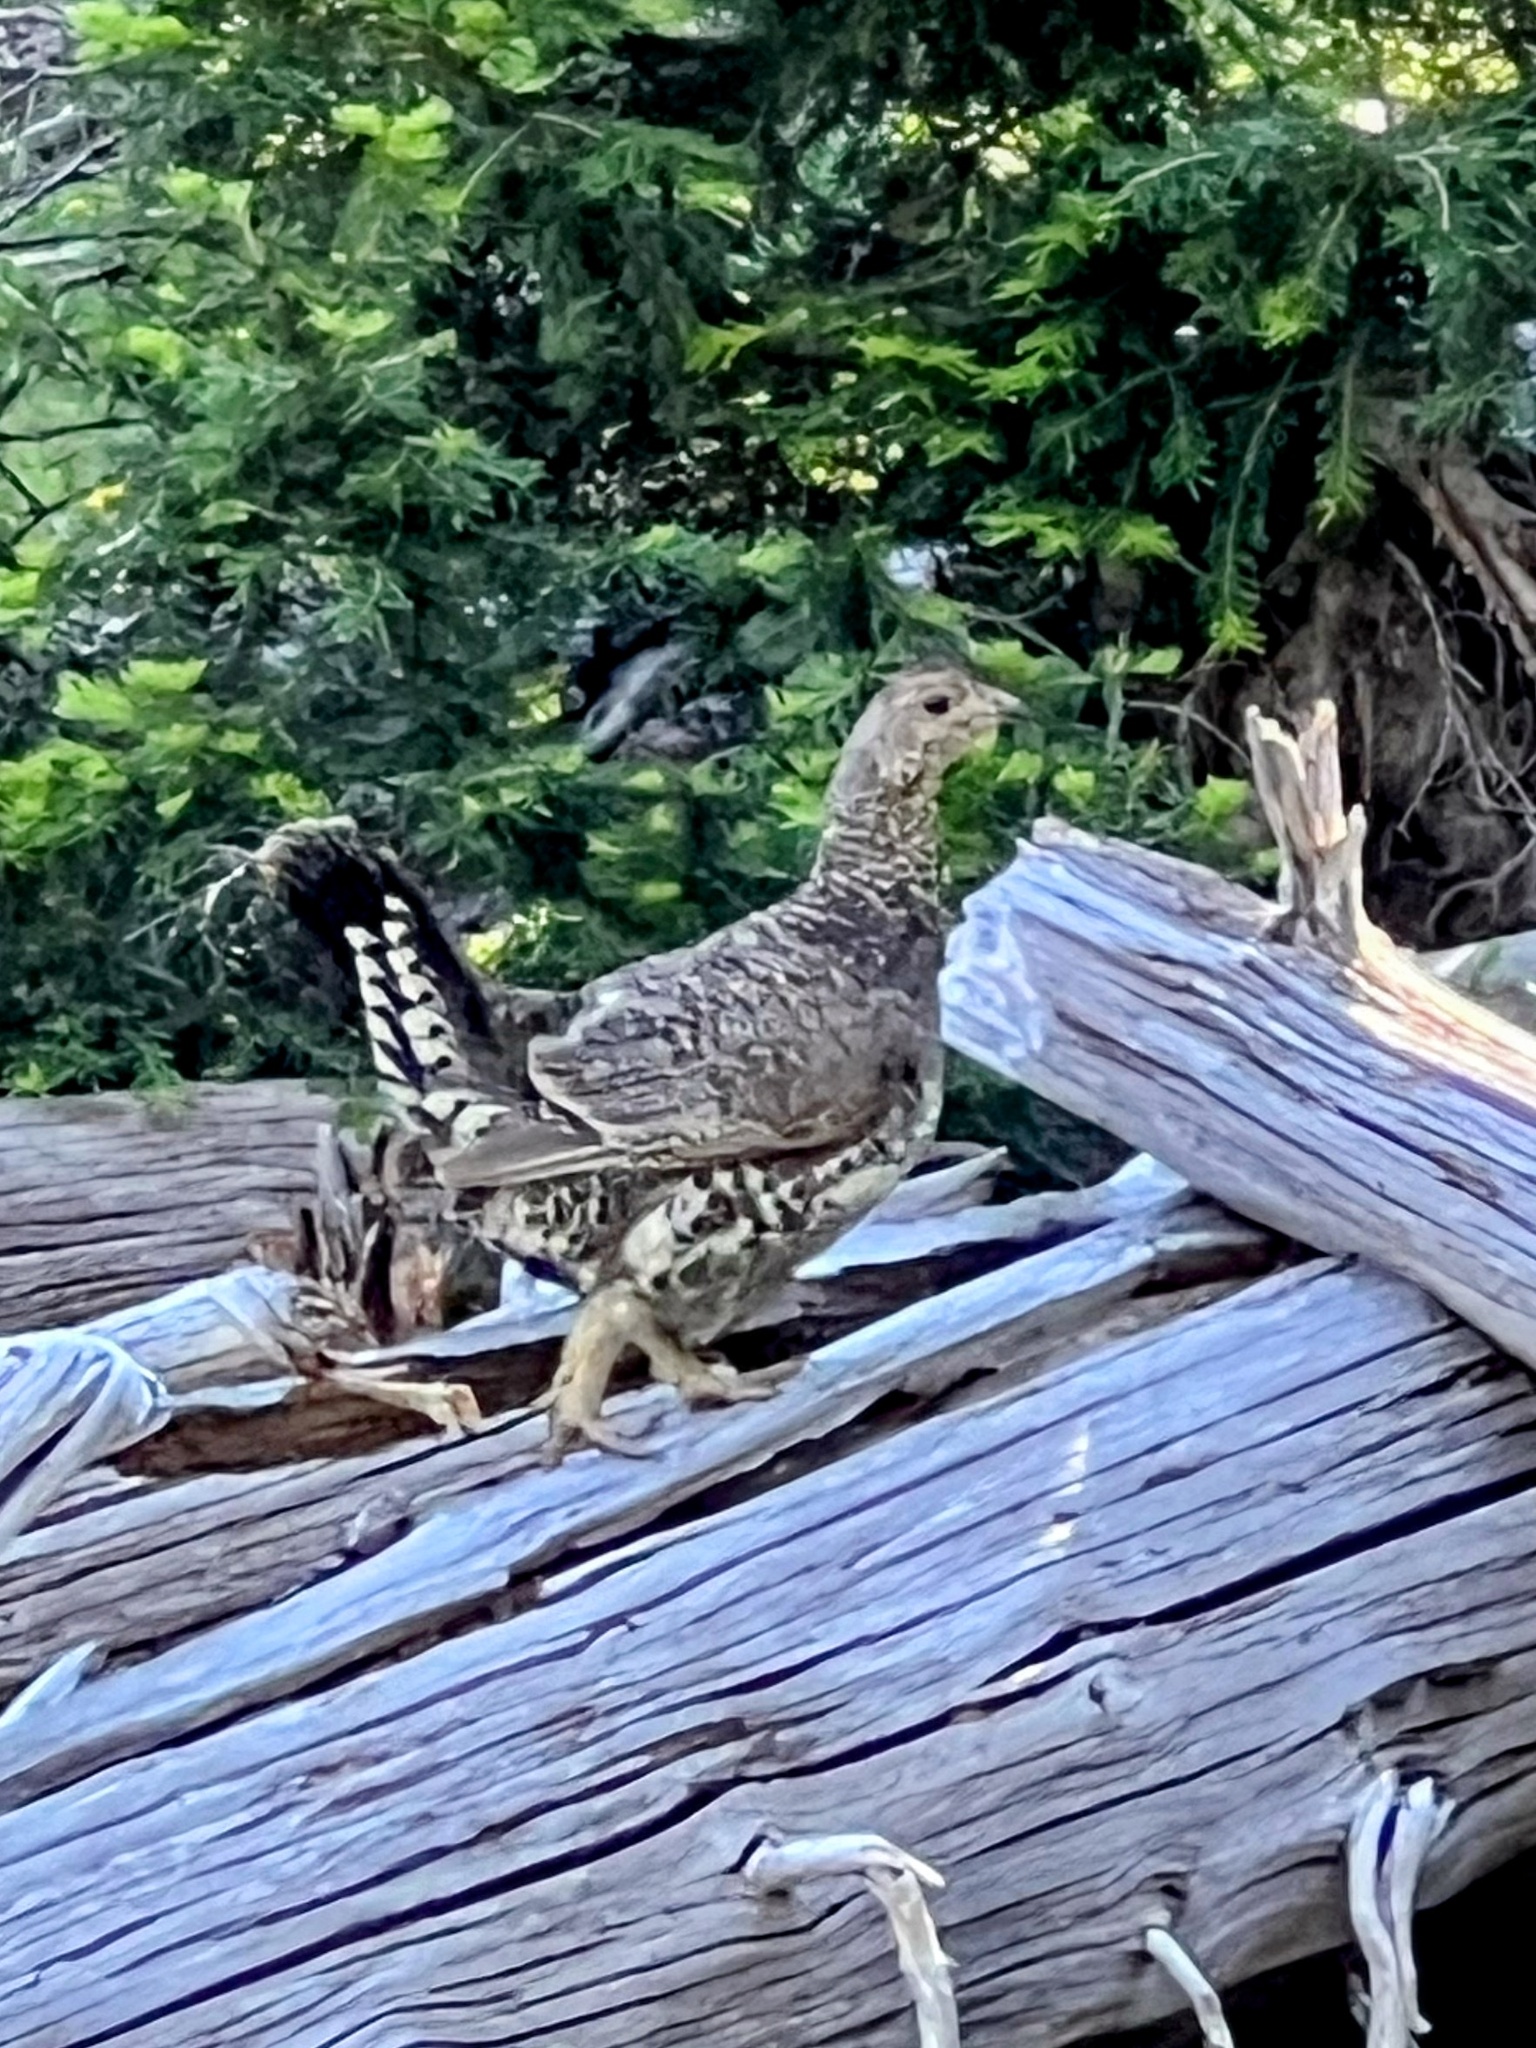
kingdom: Animalia
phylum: Chordata
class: Aves
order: Galliformes
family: Phasianidae
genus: Dendragapus
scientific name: Dendragapus obscurus
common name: Dusky grouse
